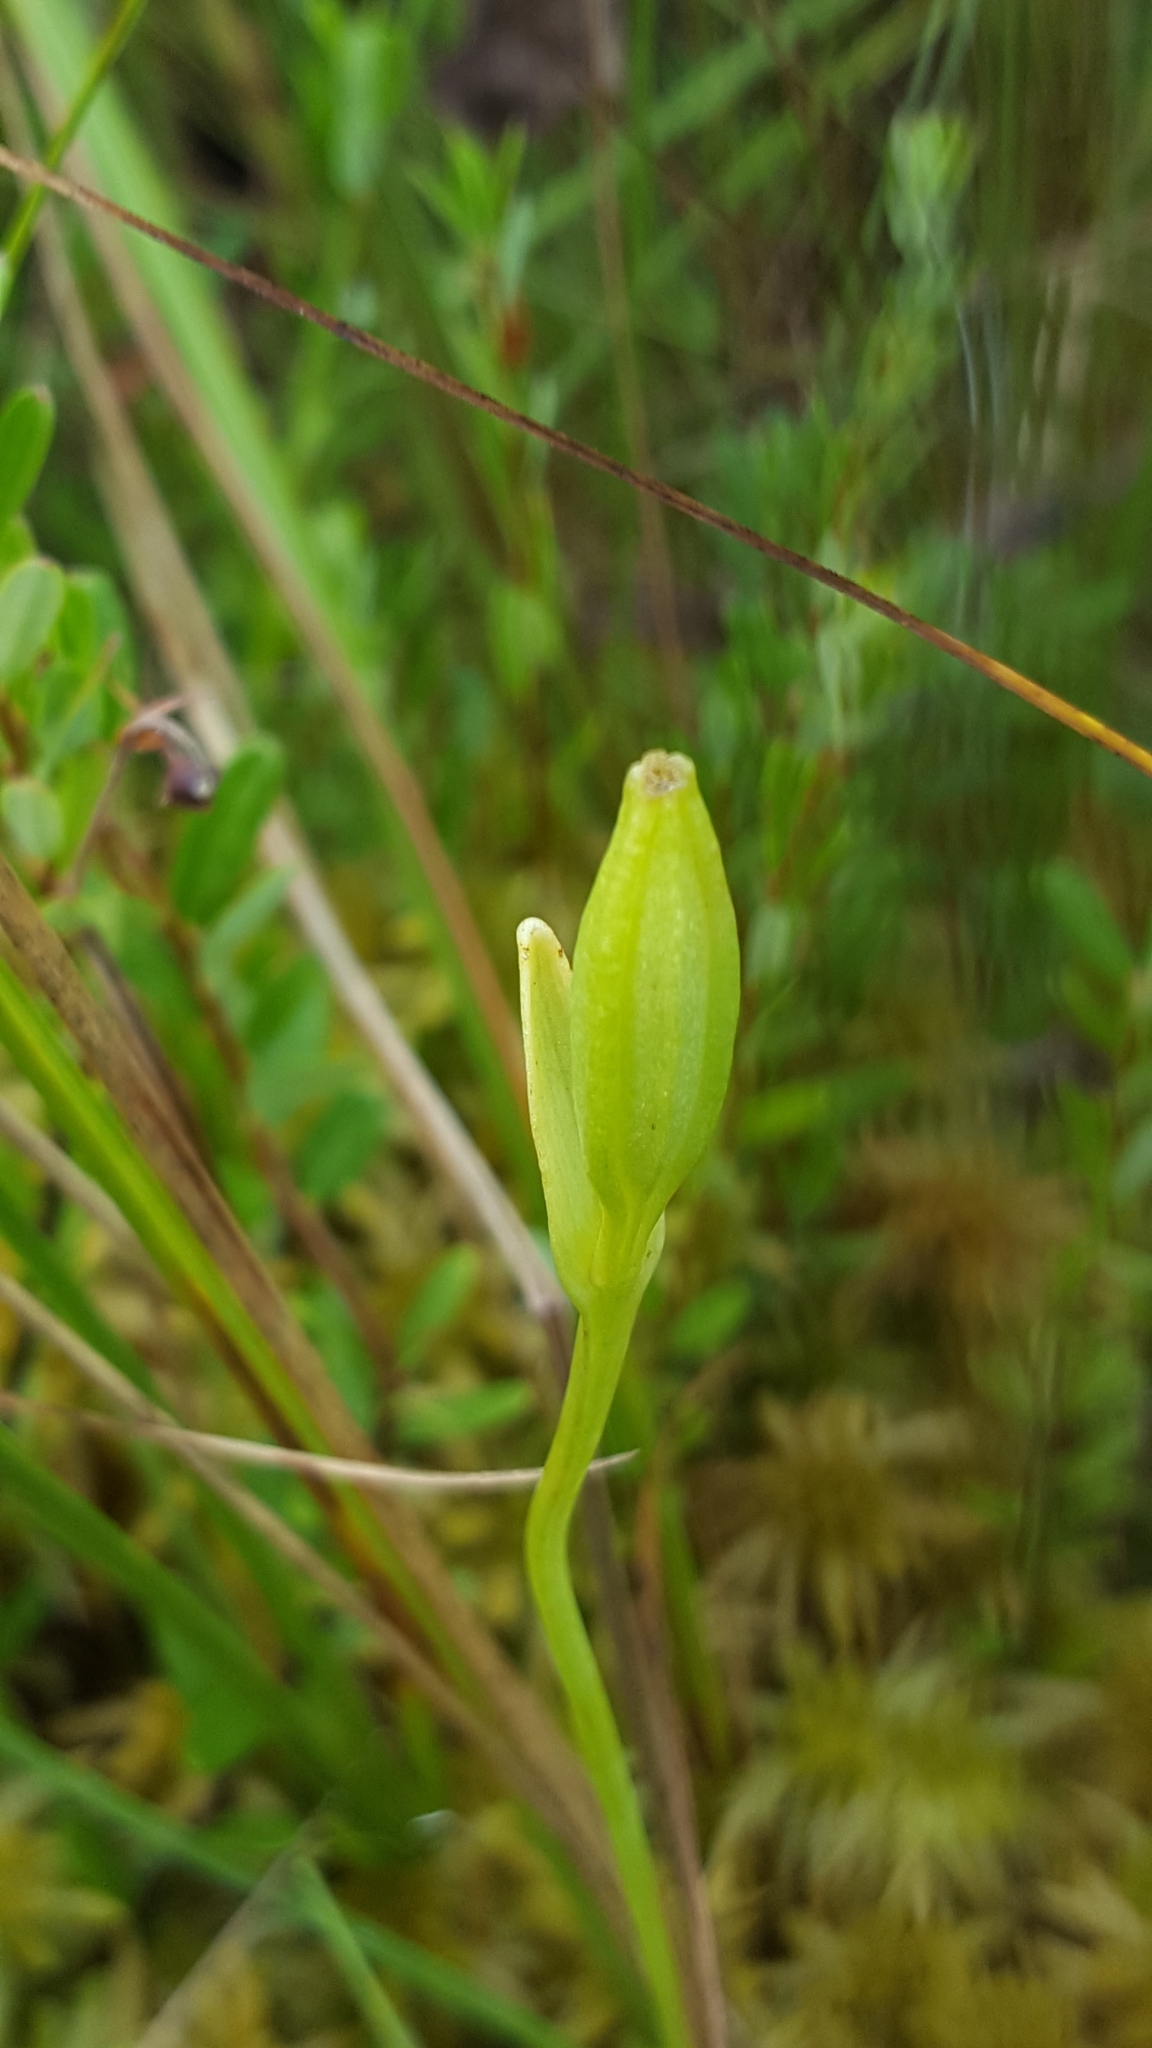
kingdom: Plantae
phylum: Tracheophyta
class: Liliopsida
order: Asparagales
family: Orchidaceae
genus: Pogonia
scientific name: Pogonia ophioglossoides
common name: Rose pogonia
